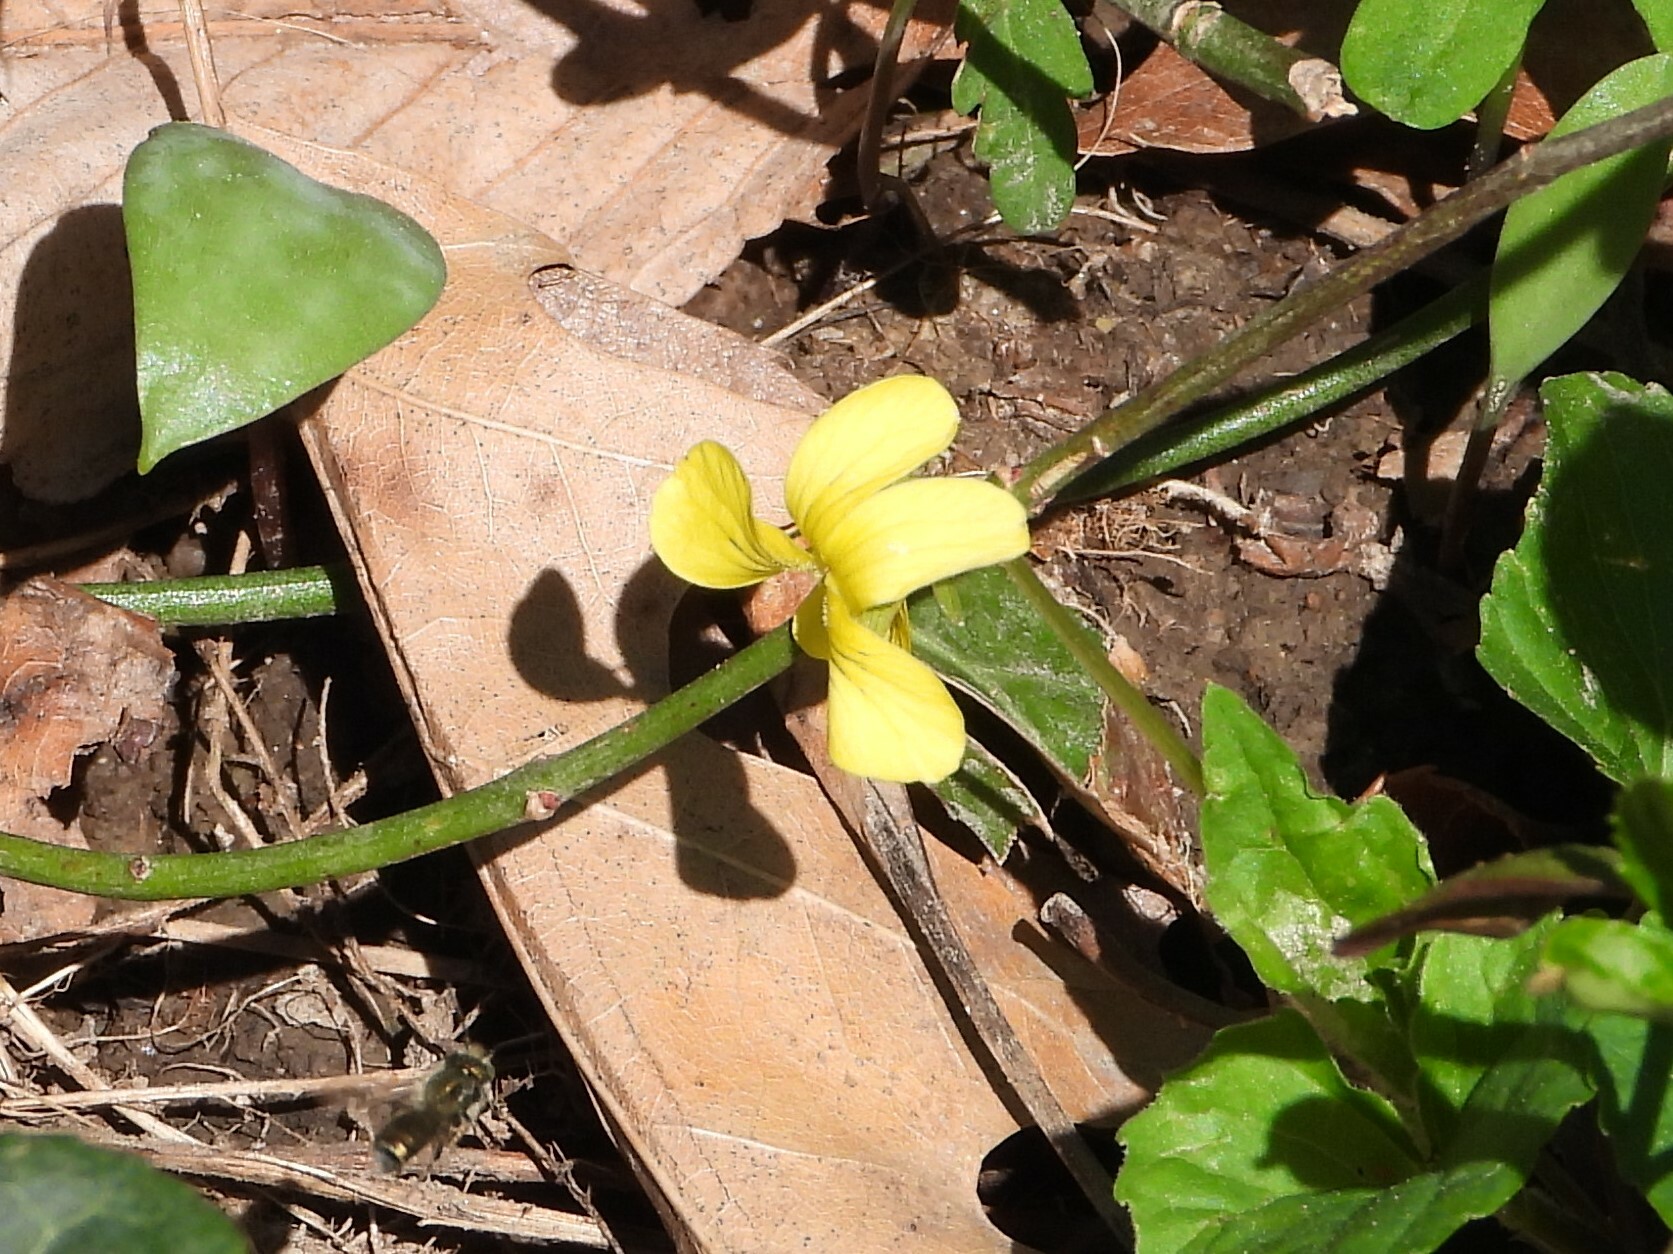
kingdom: Plantae
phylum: Tracheophyta
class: Magnoliopsida
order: Malpighiales
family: Violaceae
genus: Viola
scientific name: Viola eriocarpa
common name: Smooth yellow violet
